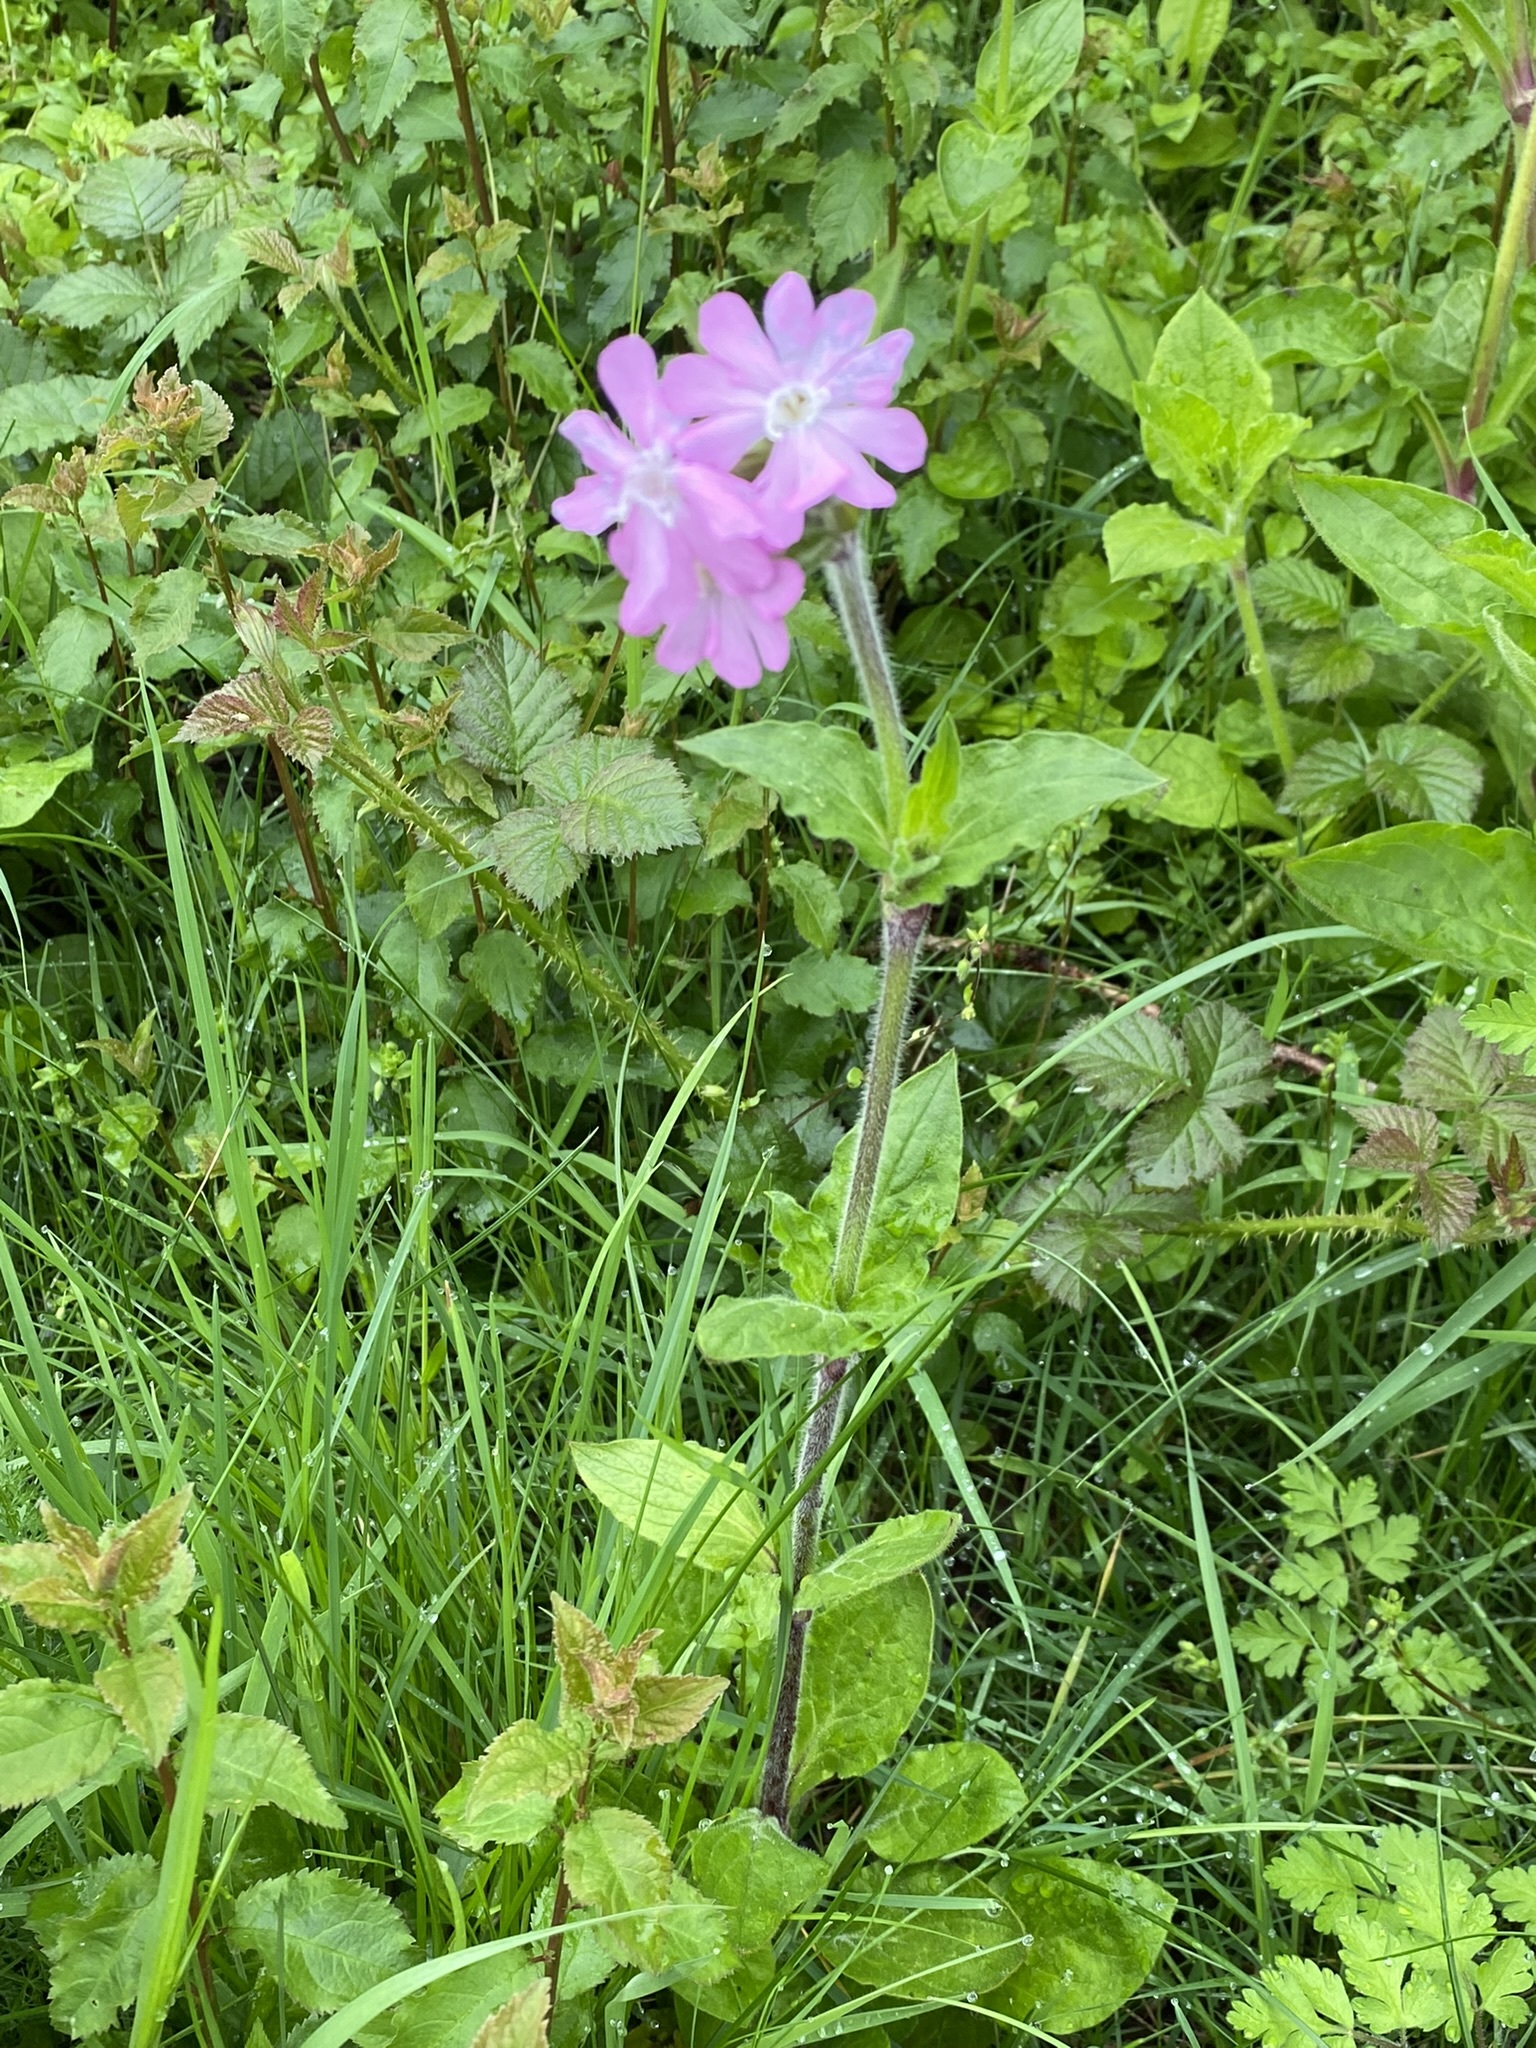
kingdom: Plantae
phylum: Tracheophyta
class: Magnoliopsida
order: Caryophyllales
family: Caryophyllaceae
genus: Silene
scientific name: Silene dioica
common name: Red campion
